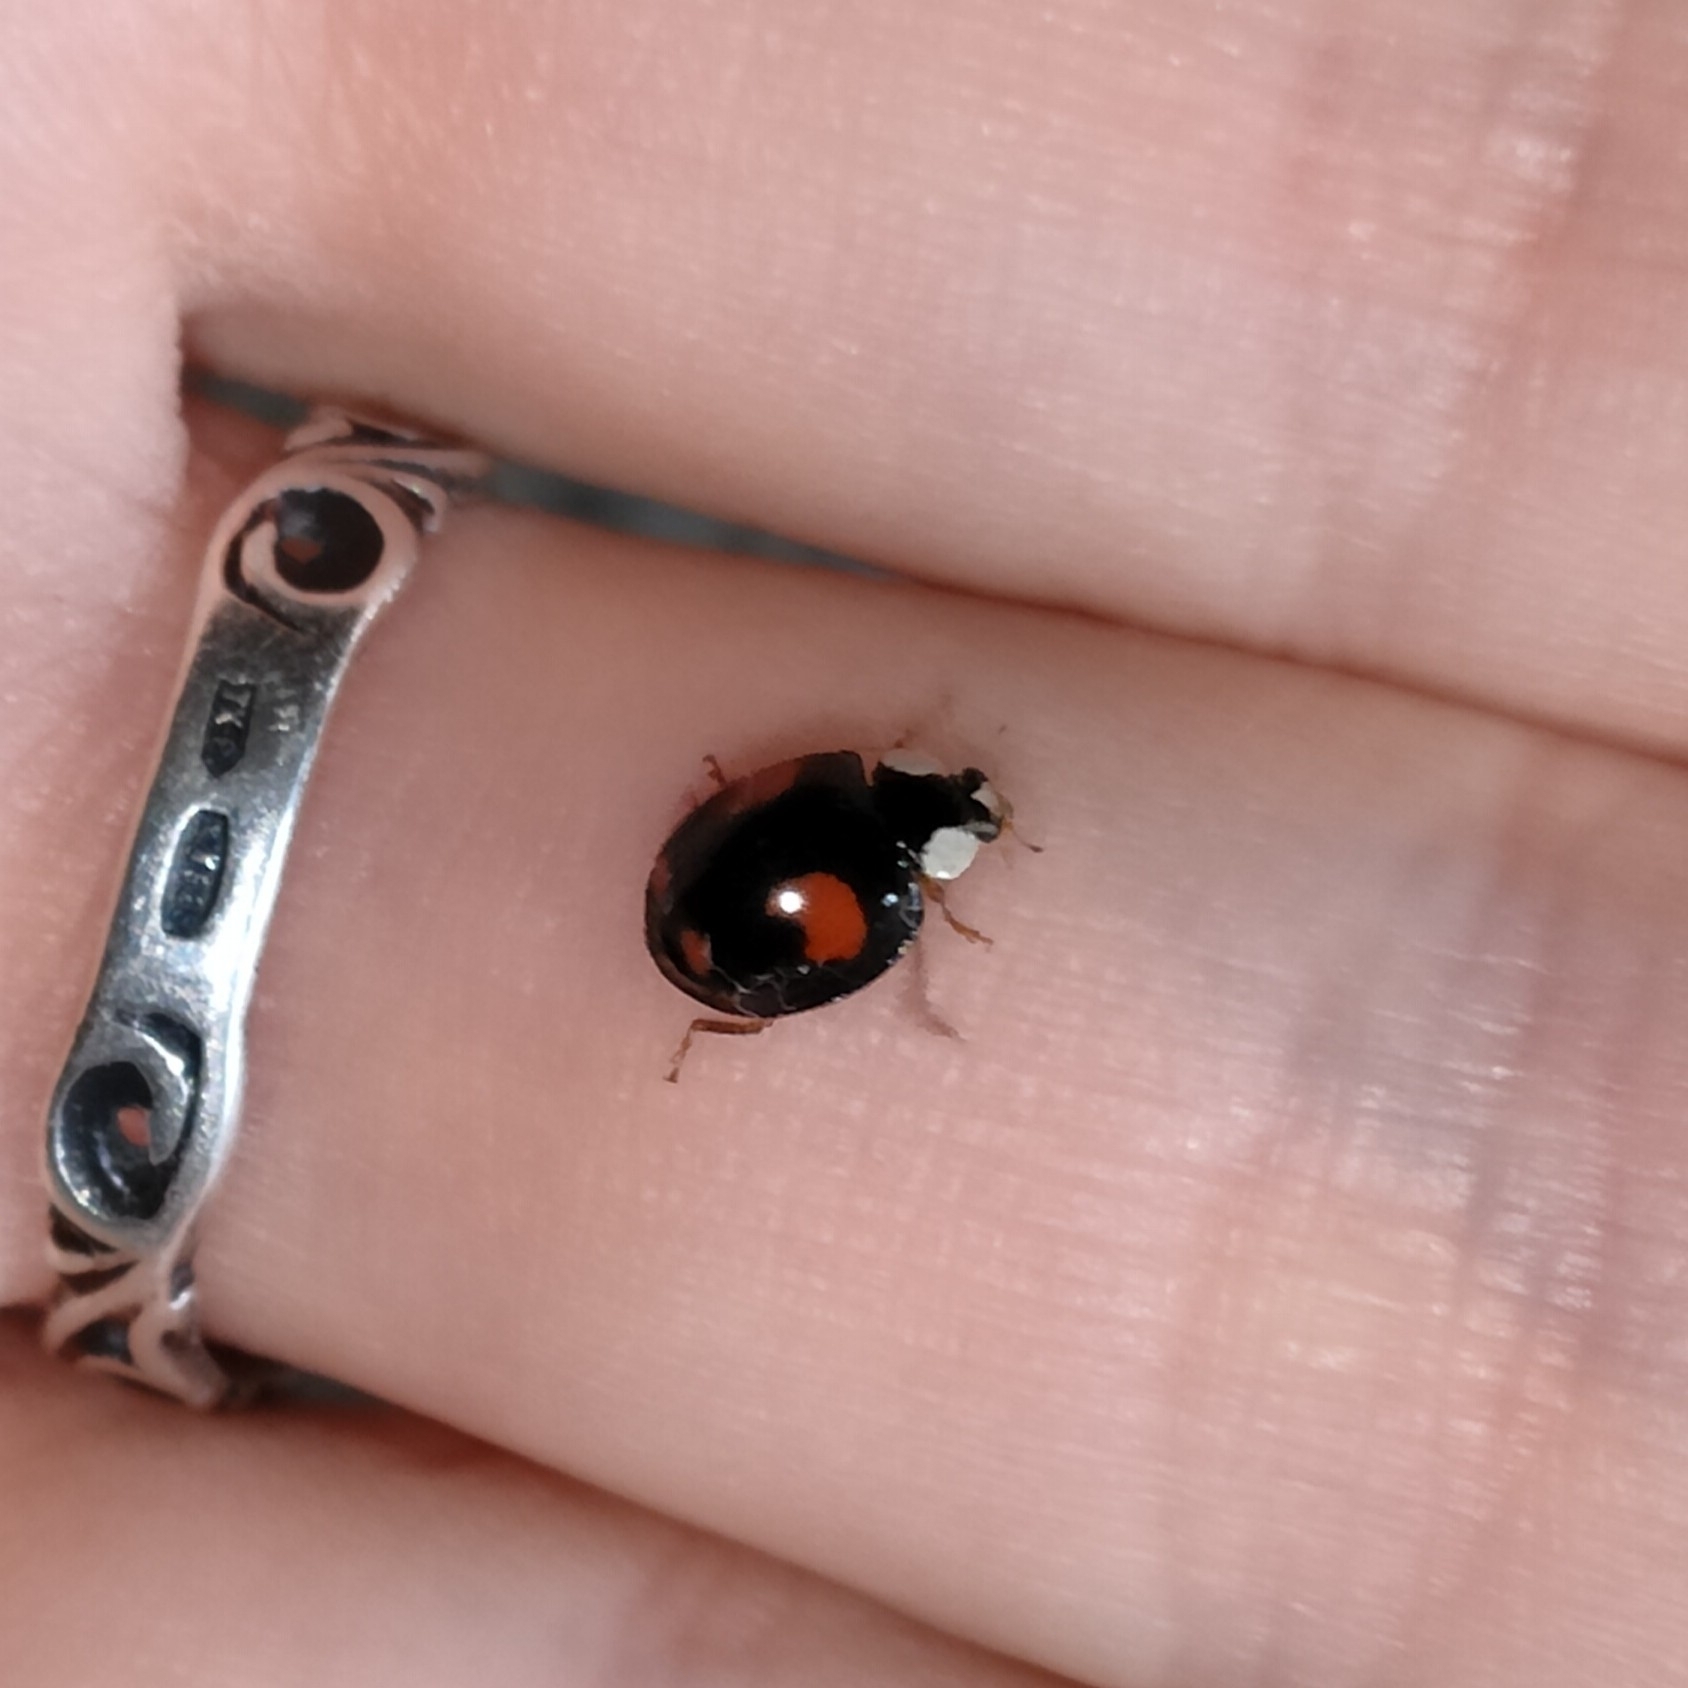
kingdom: Animalia
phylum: Arthropoda
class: Insecta
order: Coleoptera
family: Coccinellidae
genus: Harmonia
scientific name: Harmonia axyridis
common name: Harlequin ladybird
